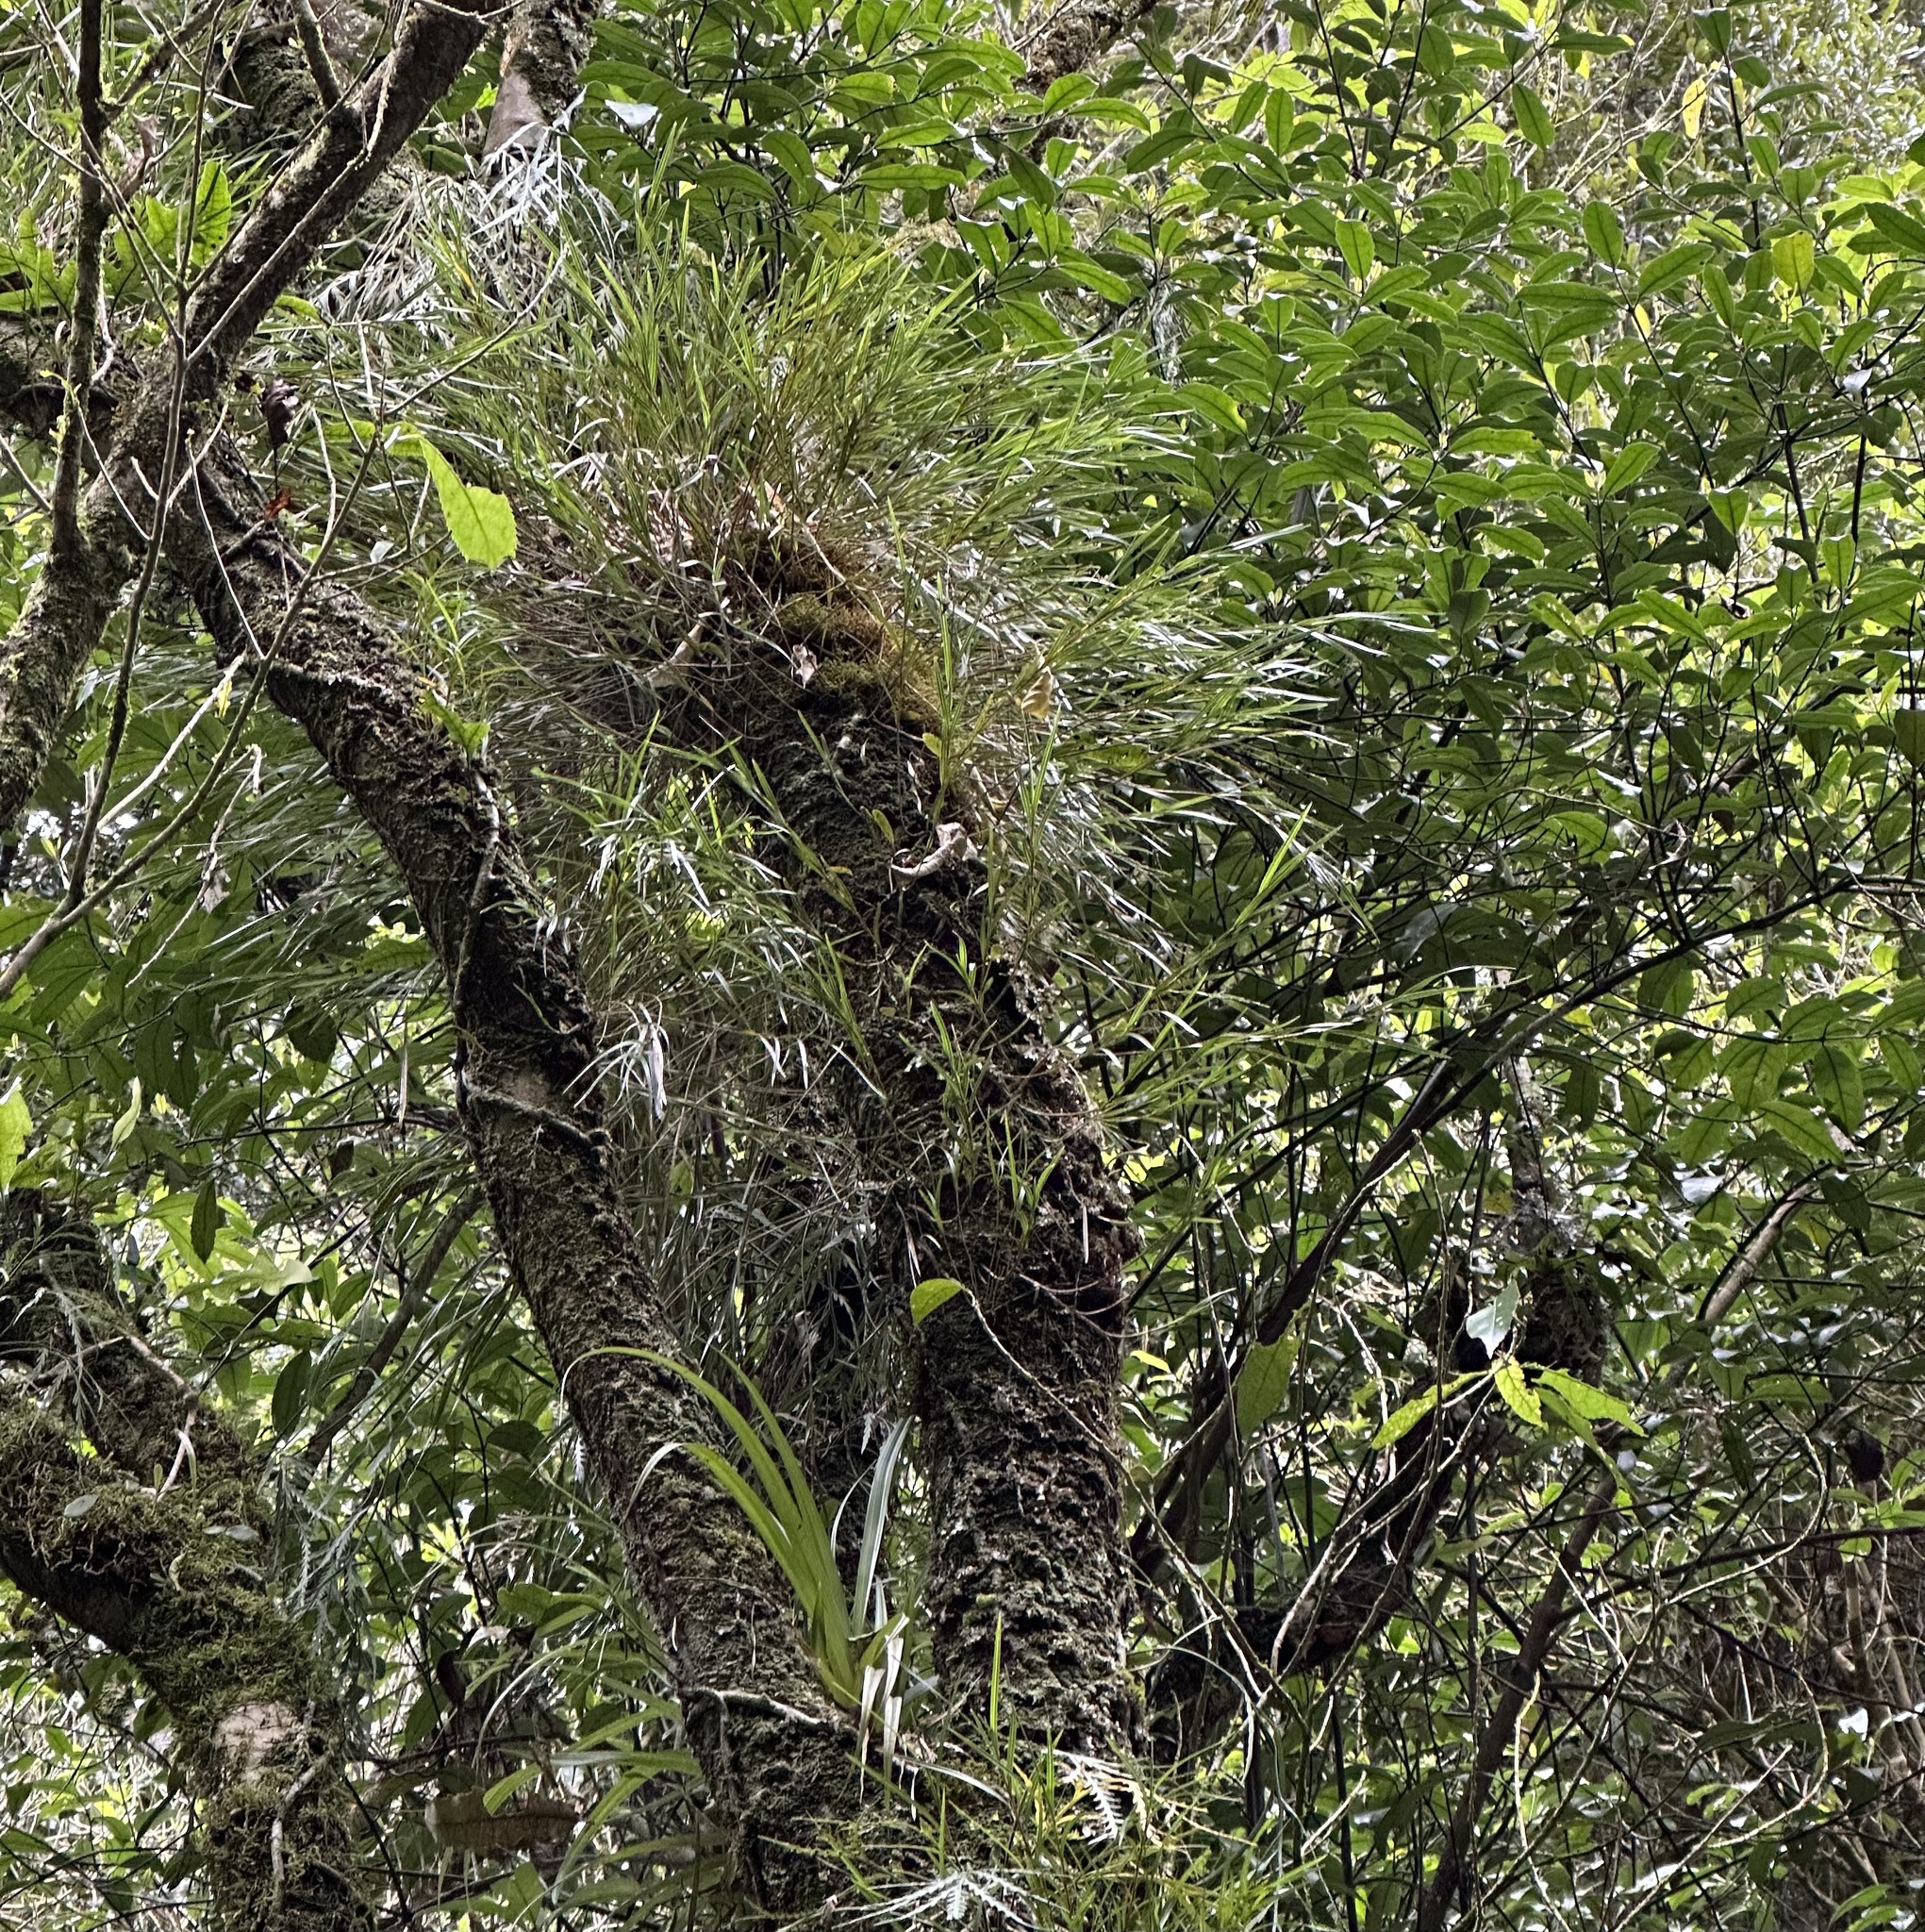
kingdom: Plantae
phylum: Tracheophyta
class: Liliopsida
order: Asparagales
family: Orchidaceae
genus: Earina
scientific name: Earina mucronata
